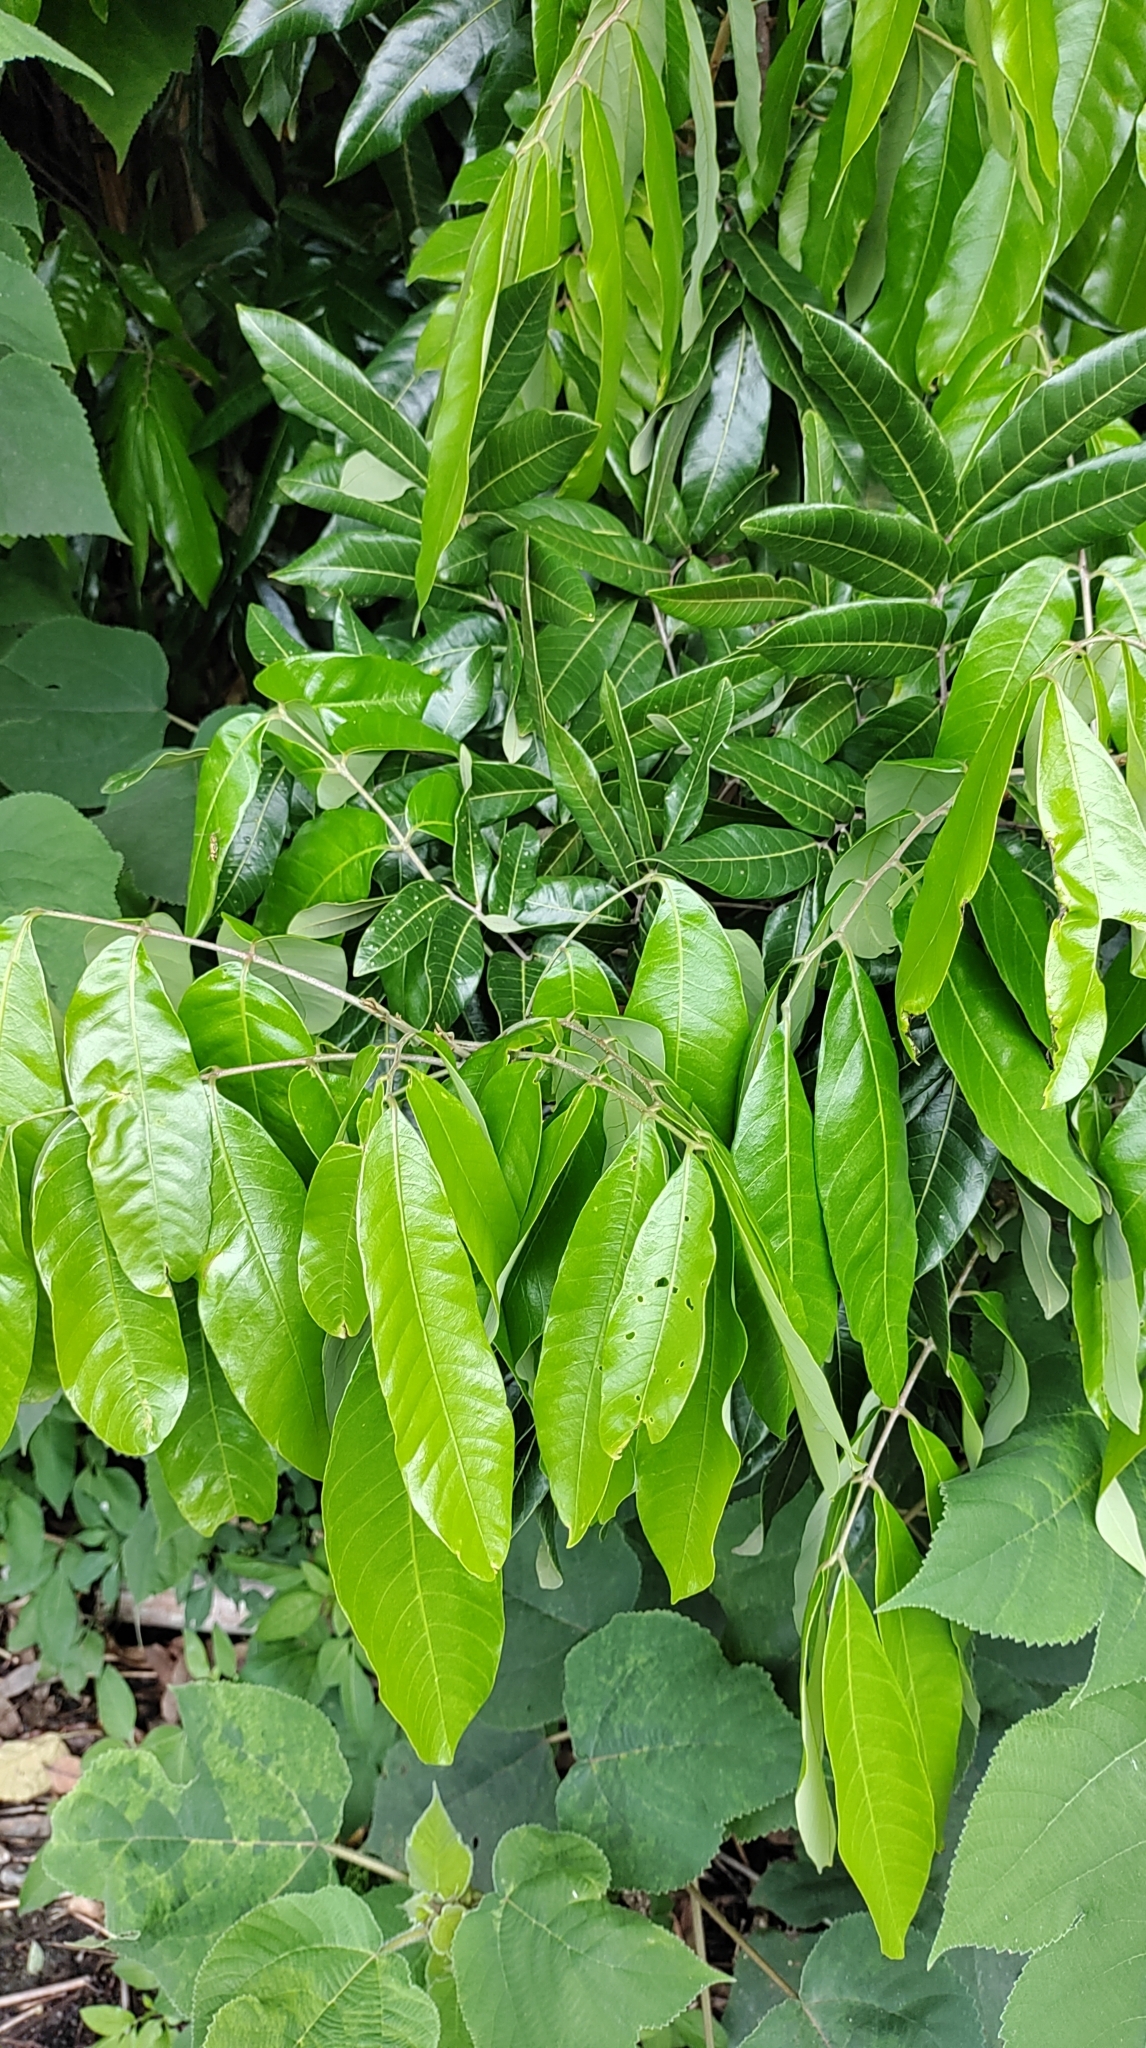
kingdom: Plantae
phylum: Tracheophyta
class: Magnoliopsida
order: Sapindales
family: Sapindaceae
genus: Dimocarpus
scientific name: Dimocarpus longan
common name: Longan
